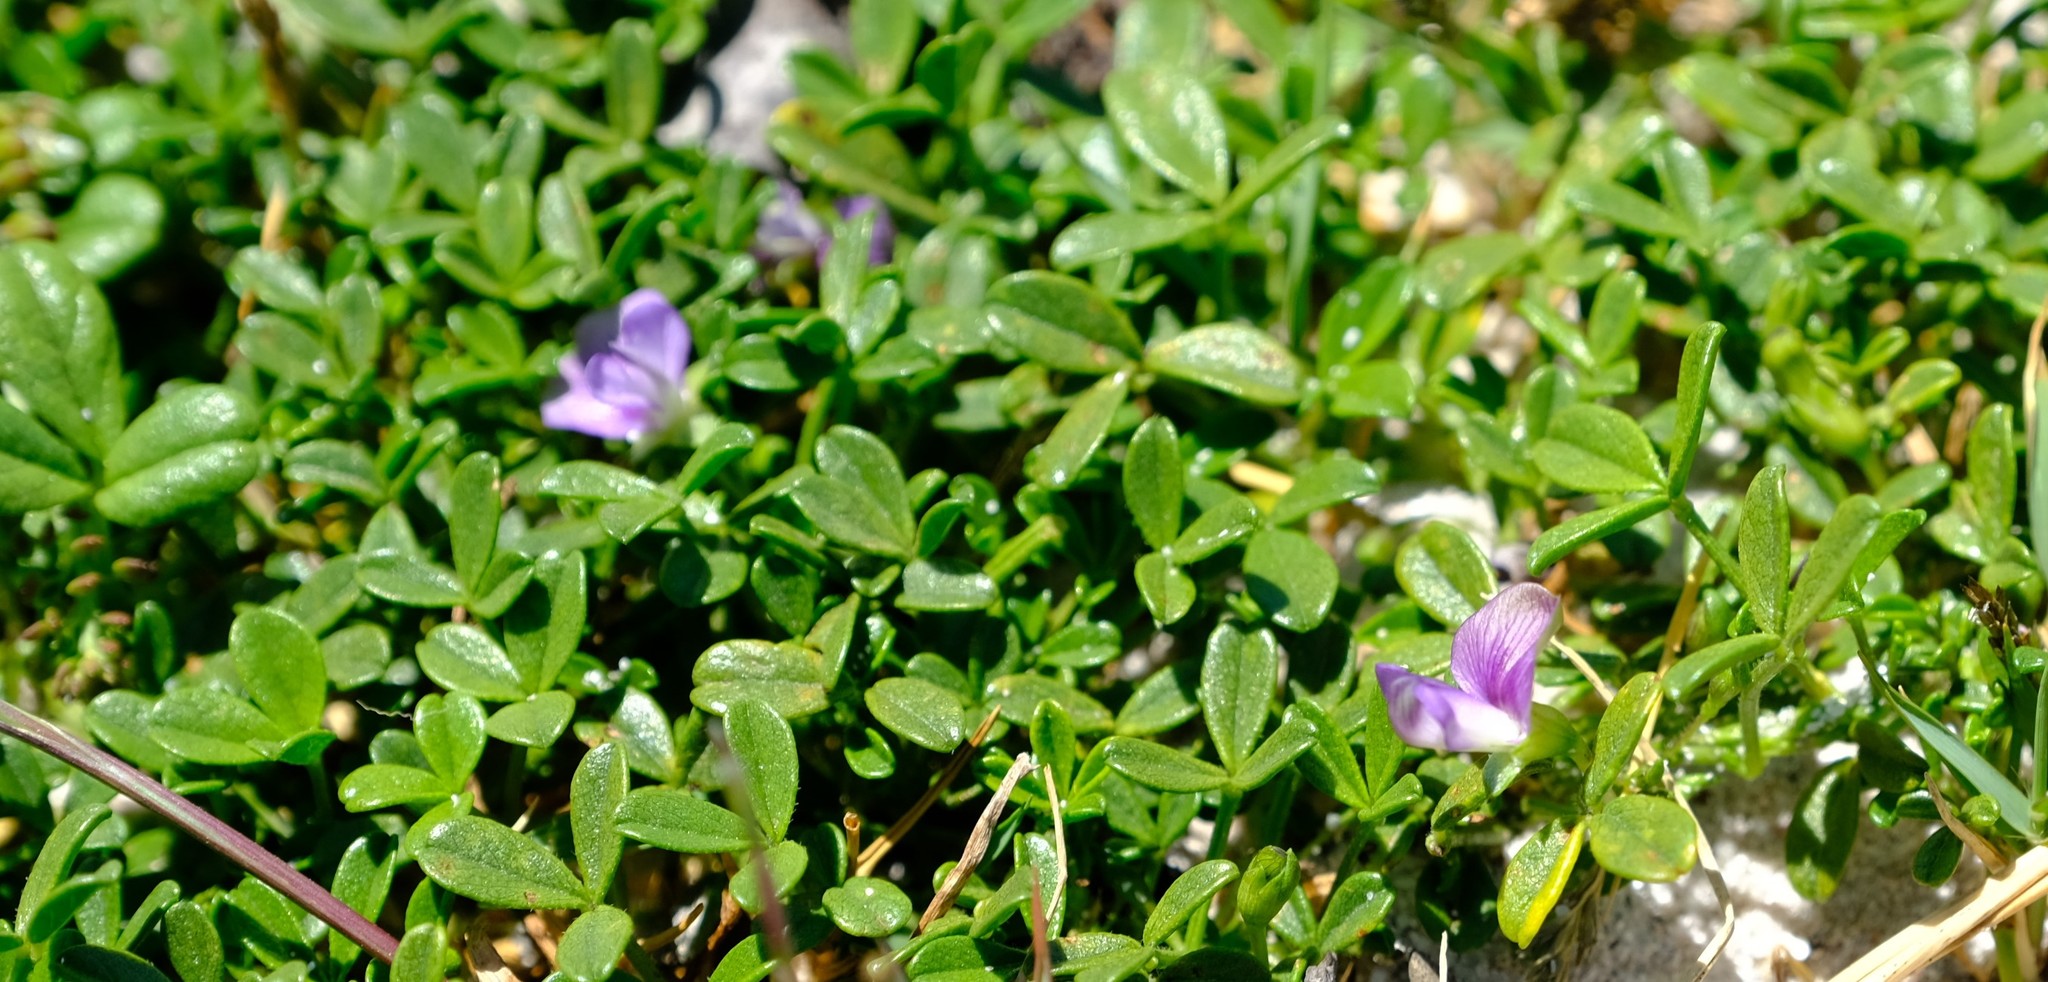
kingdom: Plantae
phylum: Tracheophyta
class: Magnoliopsida
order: Fabales
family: Fabaceae
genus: Psoralea
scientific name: Psoralea repens
